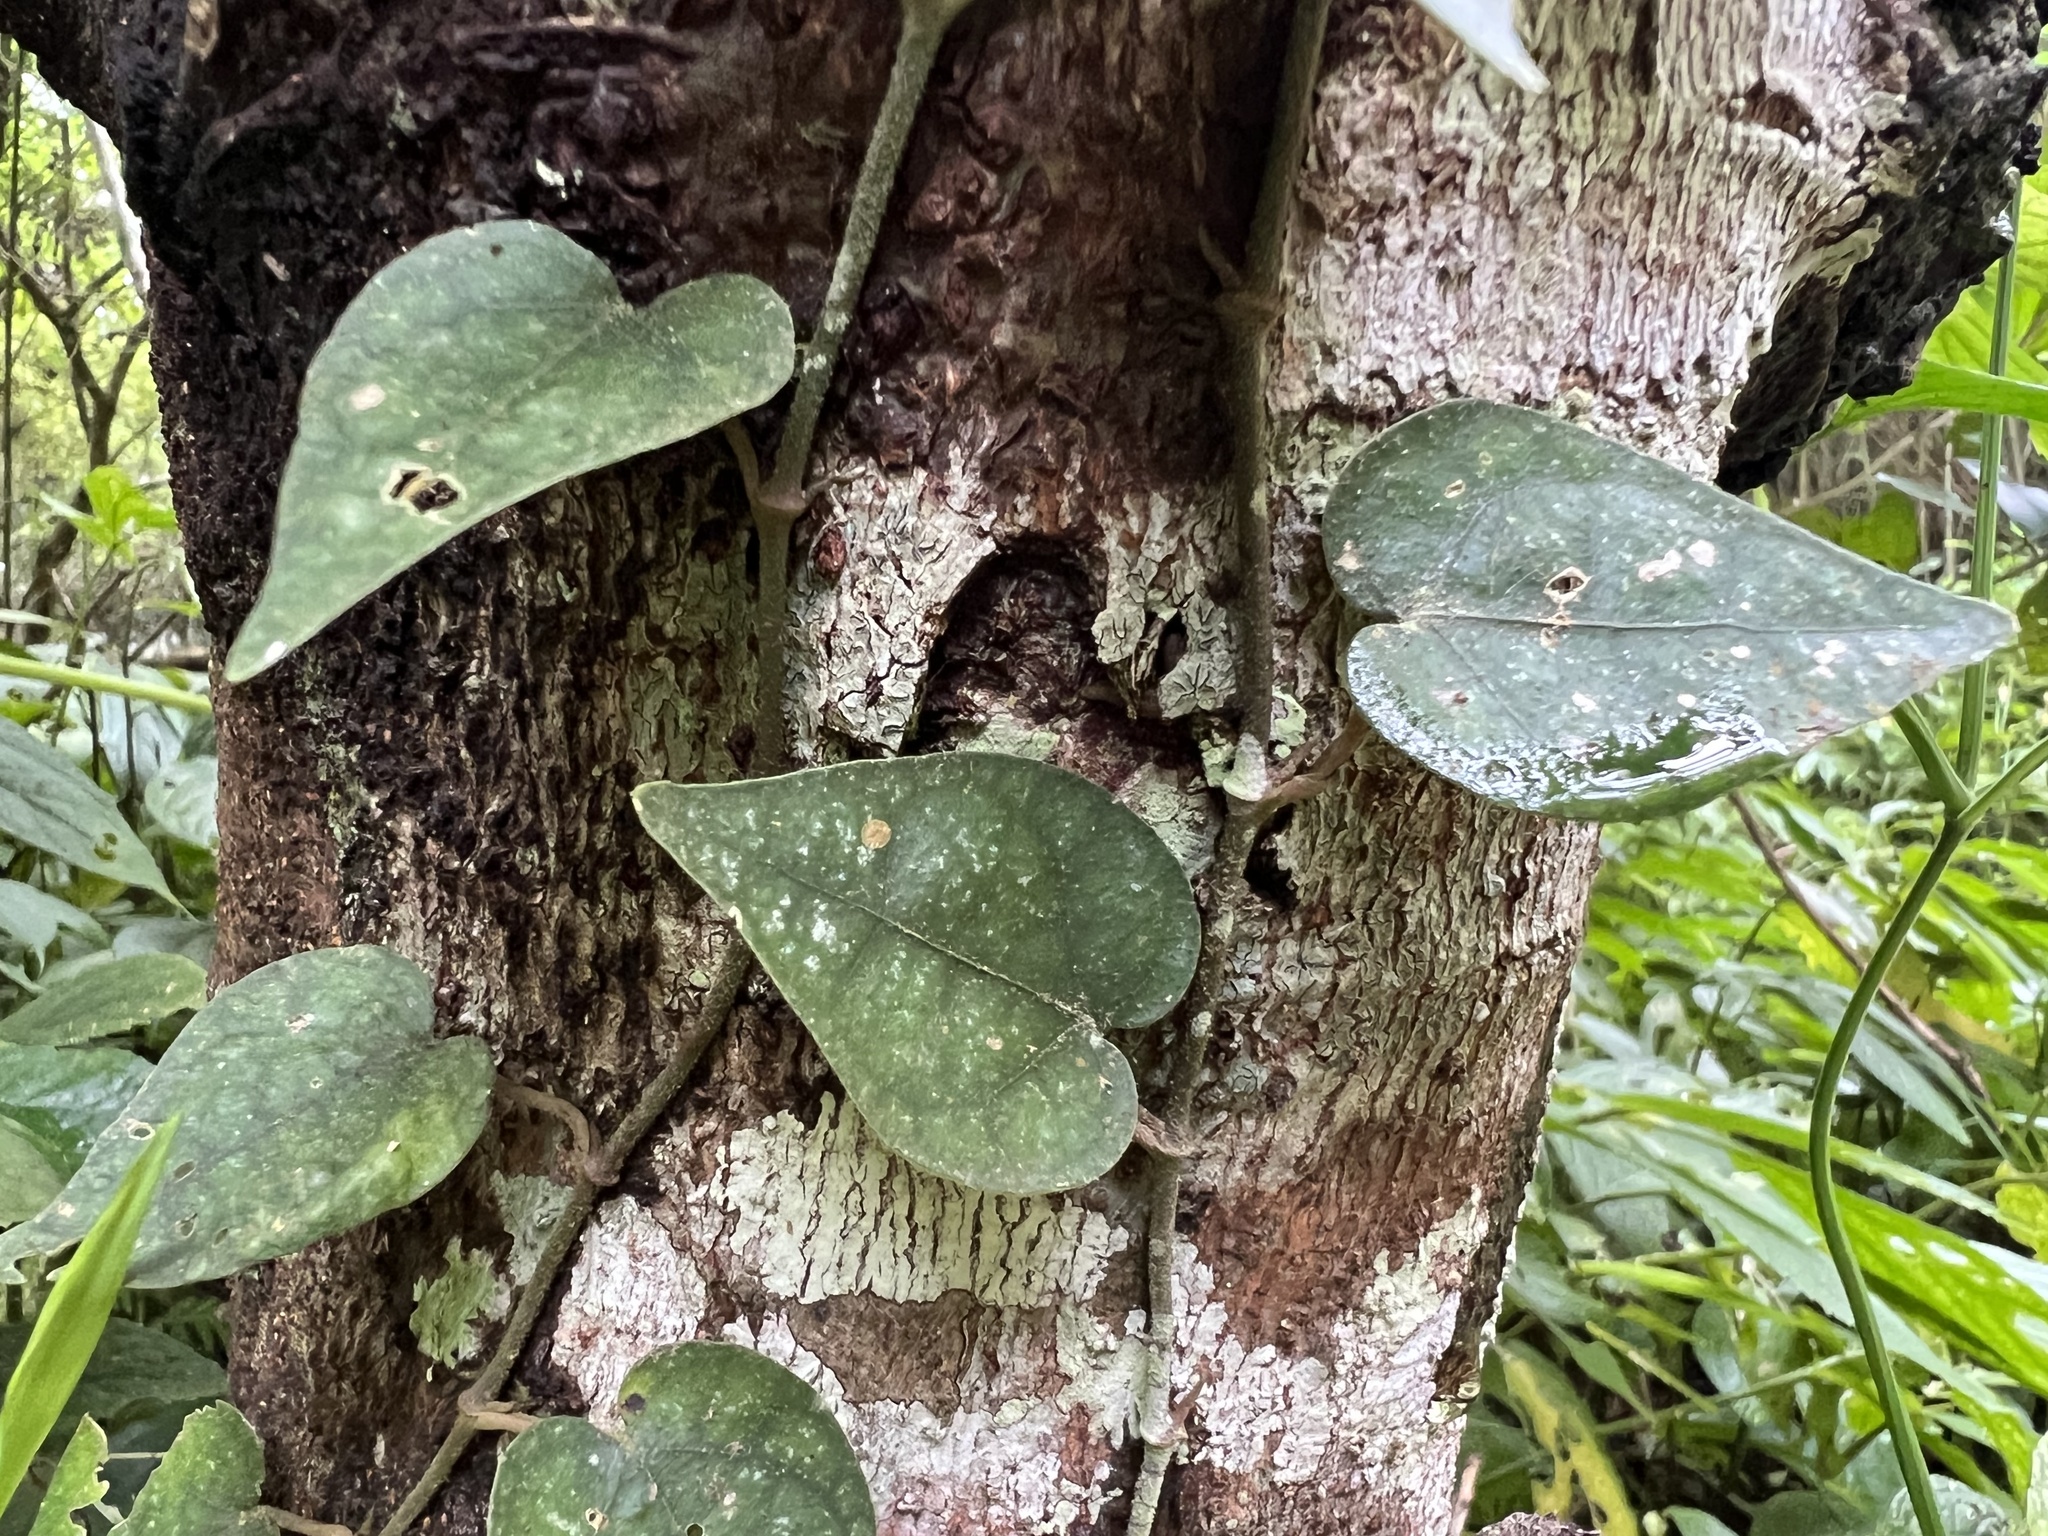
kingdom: Plantae
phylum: Tracheophyta
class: Magnoliopsida
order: Piperales
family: Piperaceae
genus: Piper
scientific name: Piper kadsura
